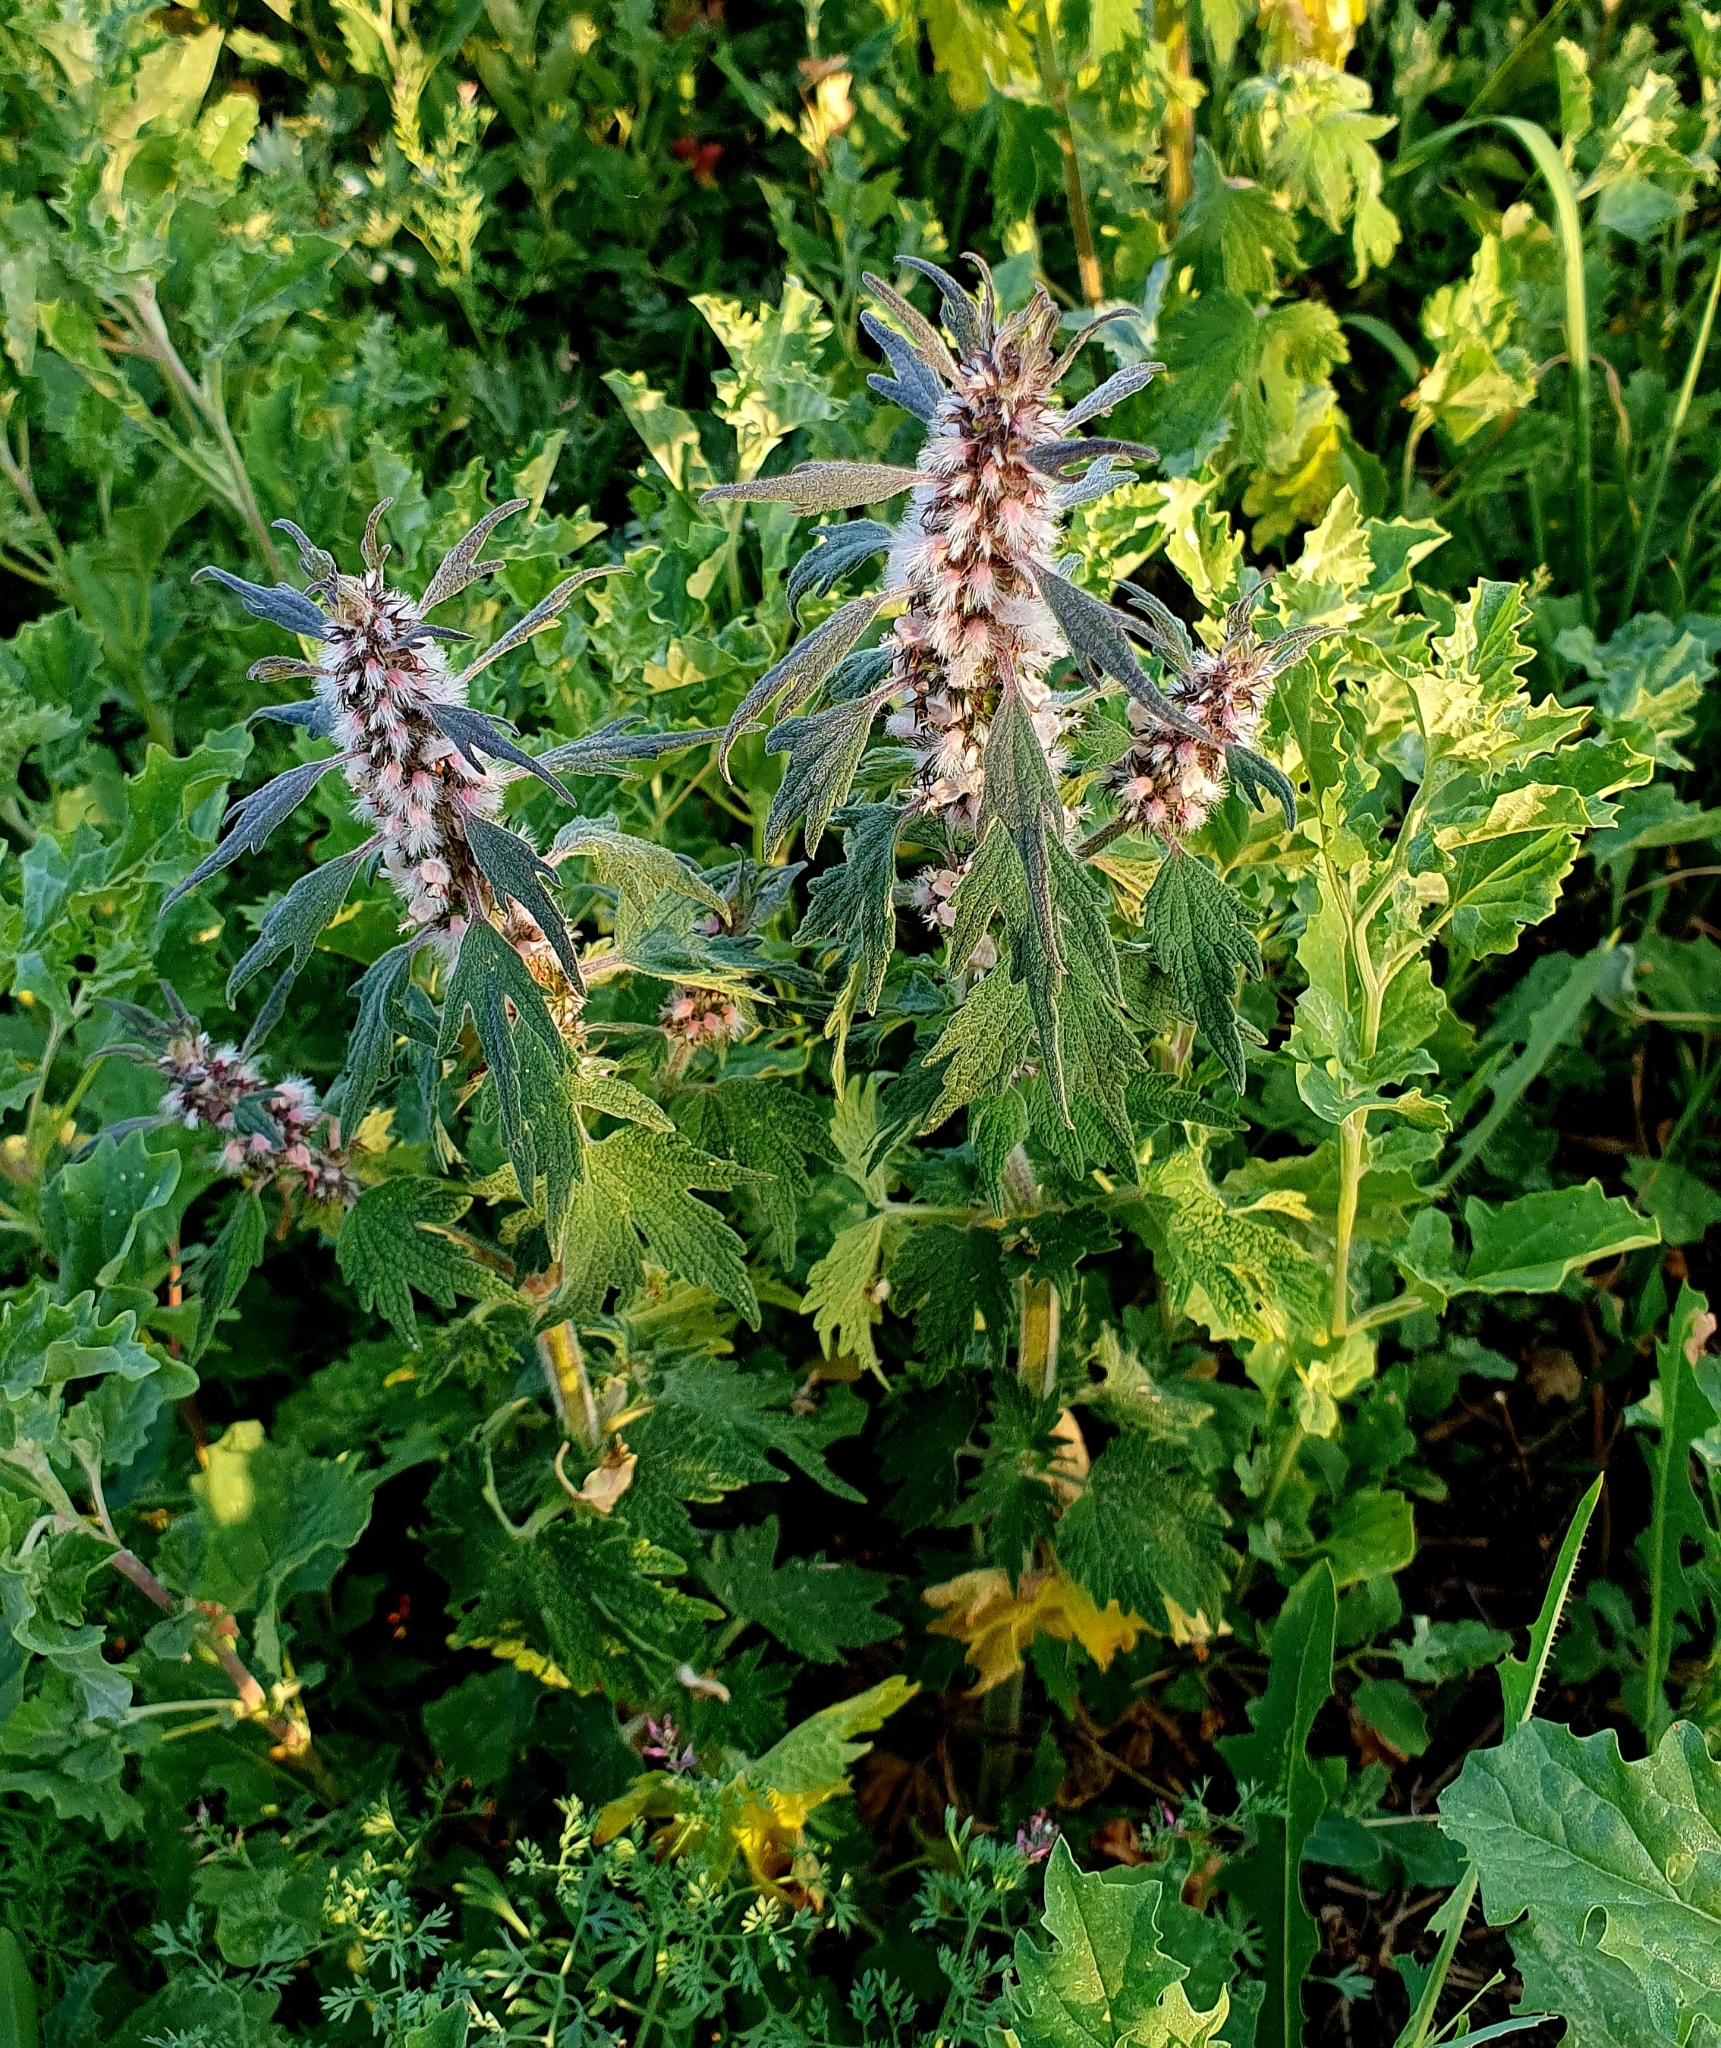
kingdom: Plantae
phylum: Tracheophyta
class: Magnoliopsida
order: Lamiales
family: Lamiaceae
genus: Leonurus
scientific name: Leonurus quinquelobatus
